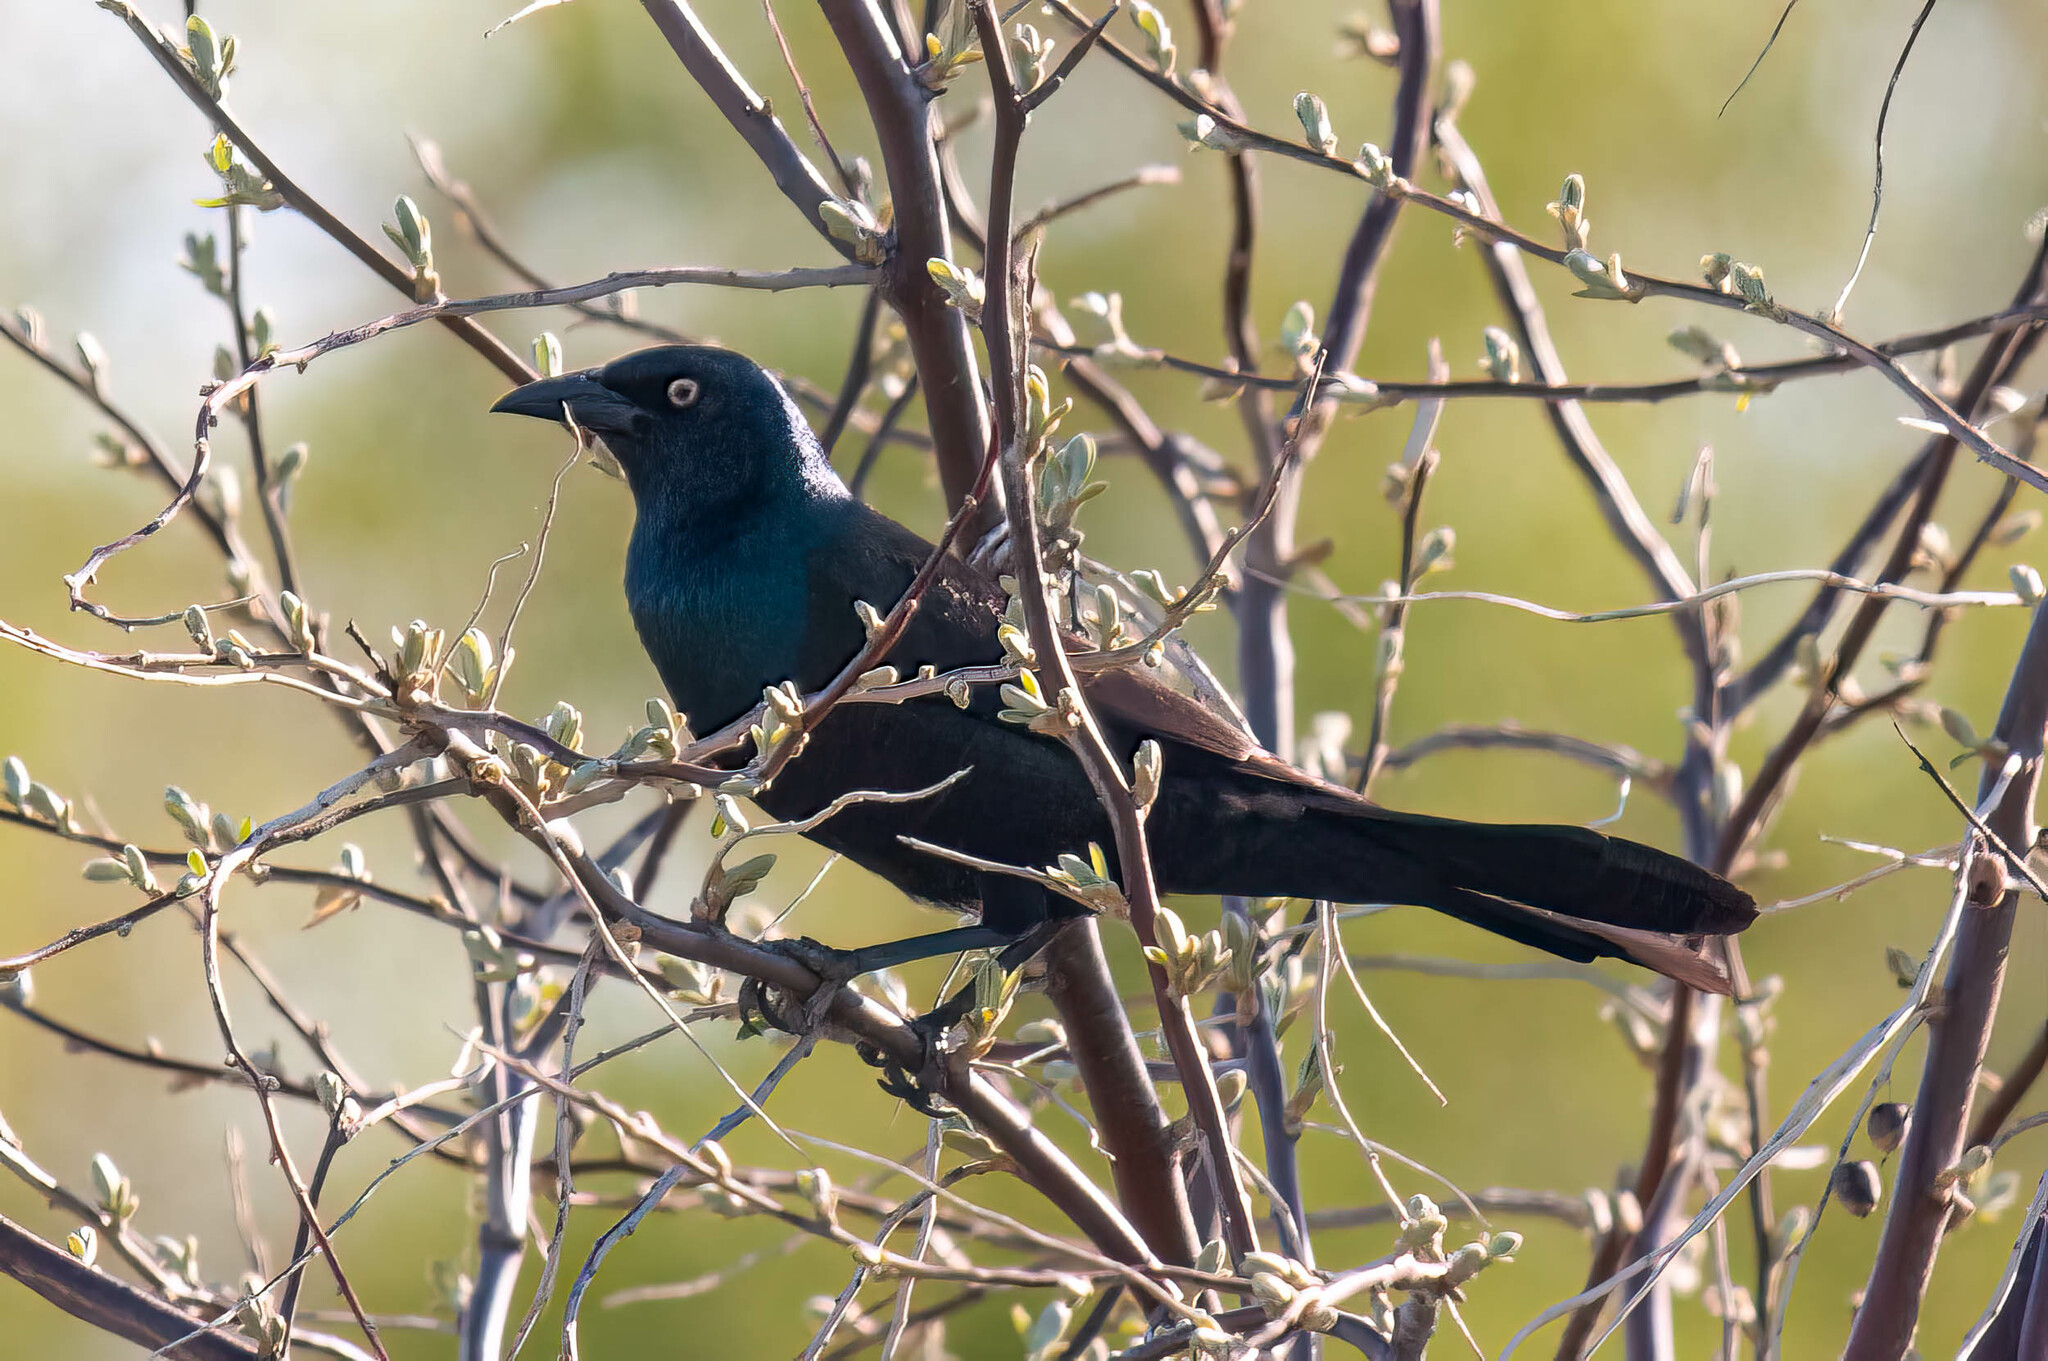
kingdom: Animalia
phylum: Chordata
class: Aves
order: Passeriformes
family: Icteridae
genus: Quiscalus
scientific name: Quiscalus quiscula
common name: Common grackle
